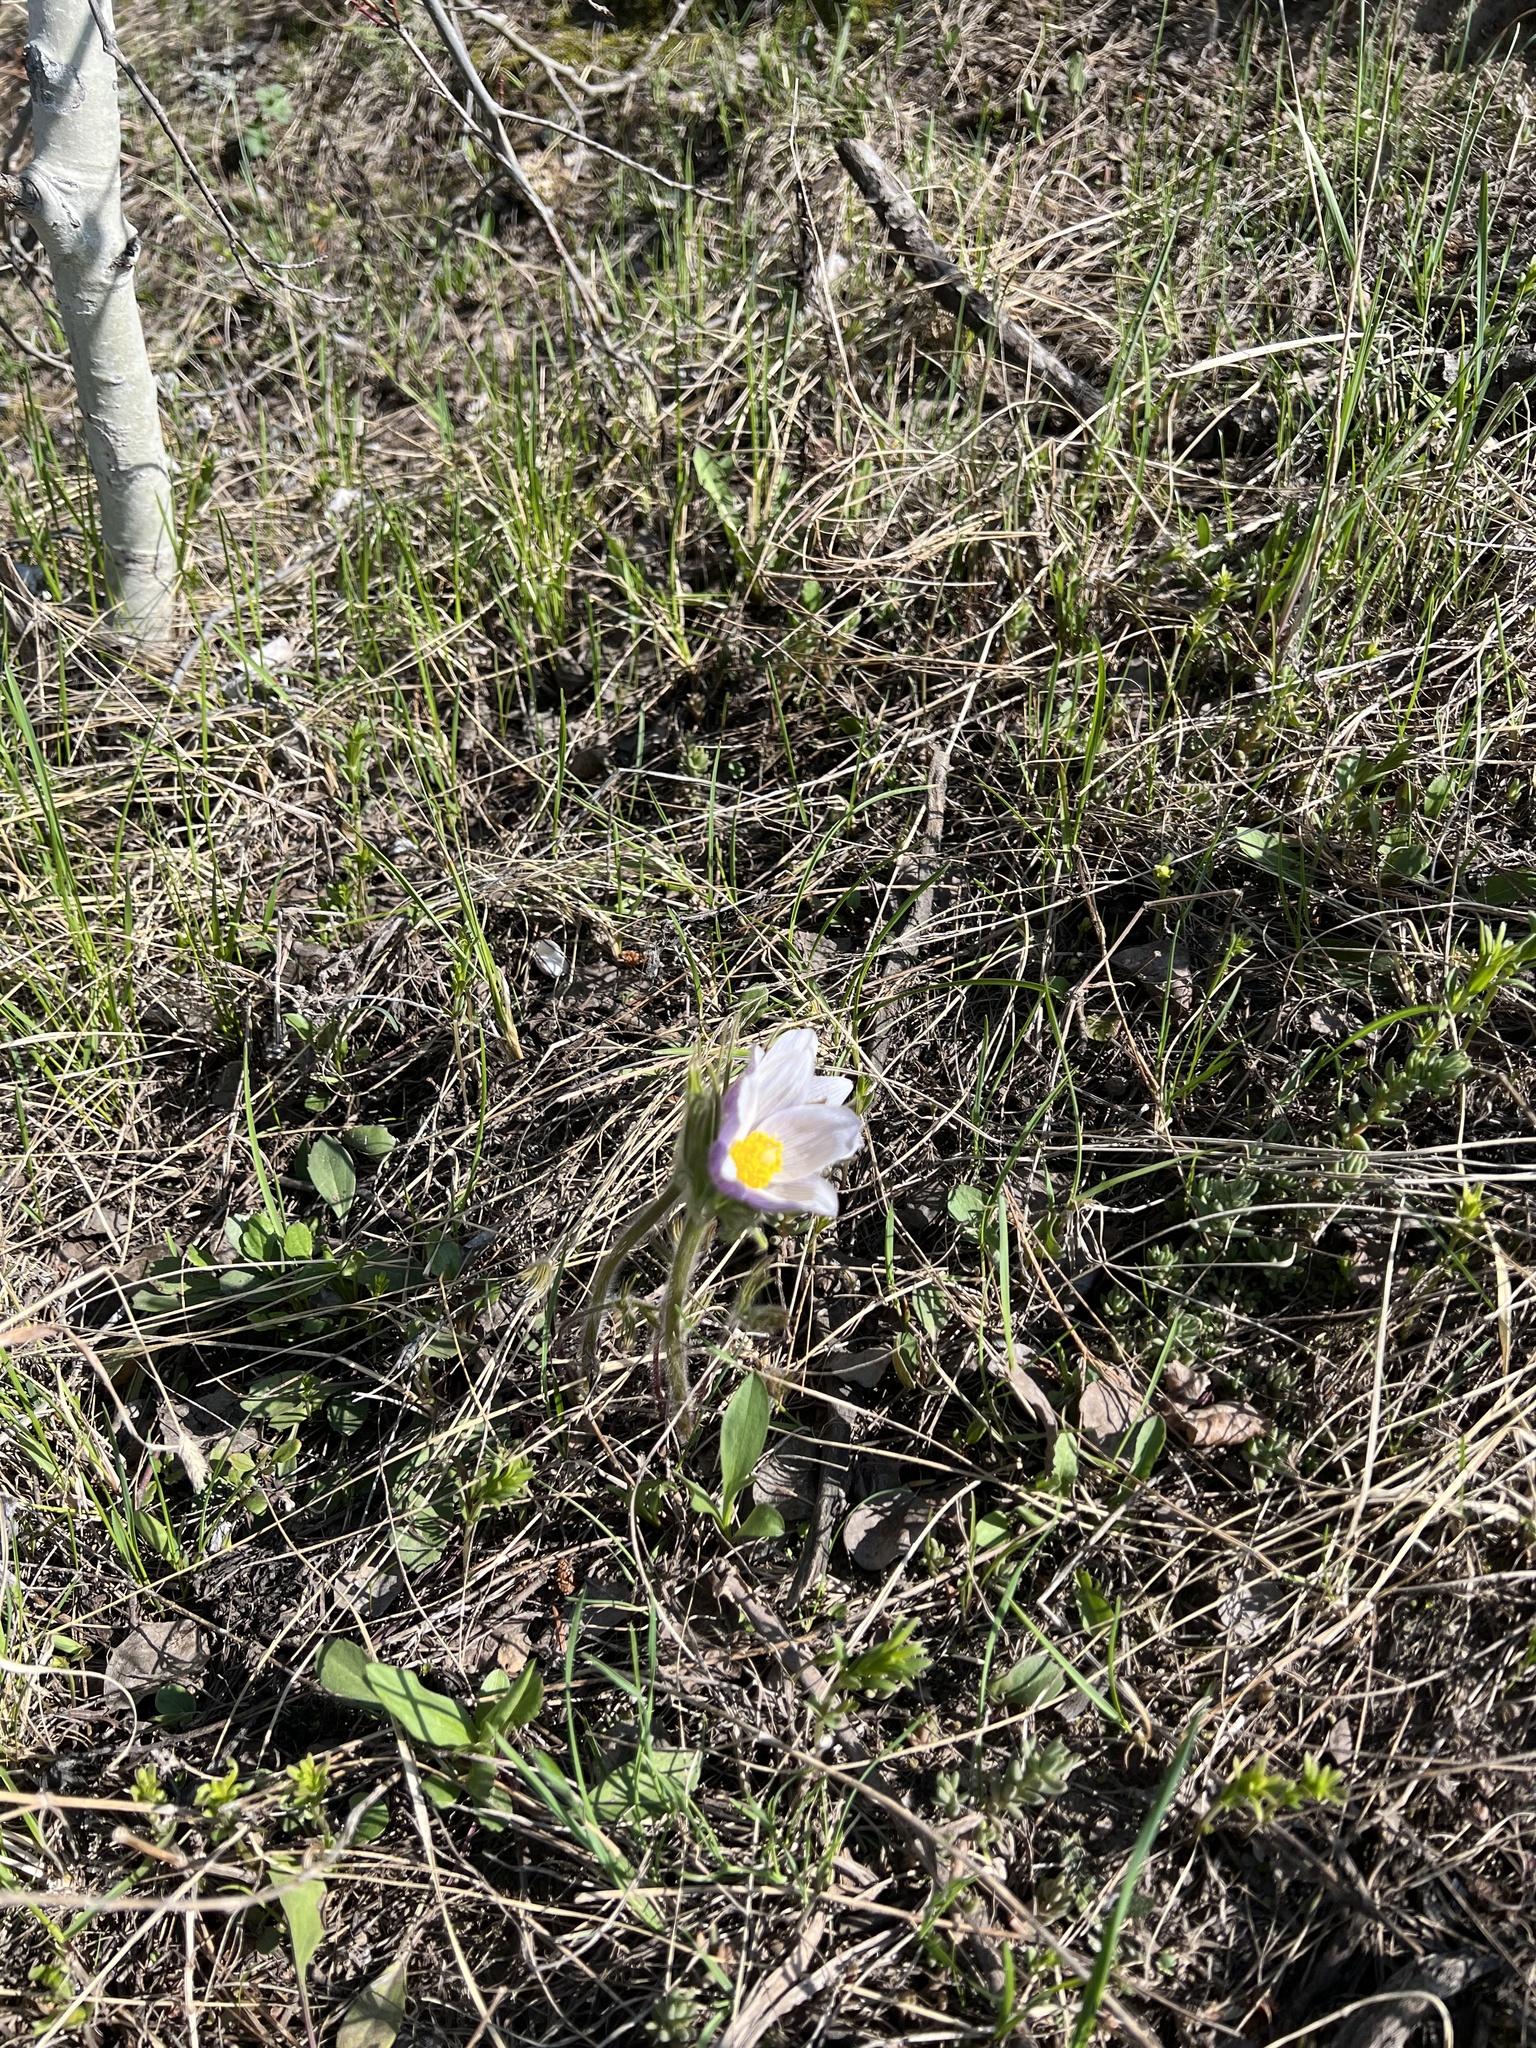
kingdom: Plantae
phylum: Tracheophyta
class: Magnoliopsida
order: Ranunculales
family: Ranunculaceae
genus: Pulsatilla
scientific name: Pulsatilla nuttalliana
